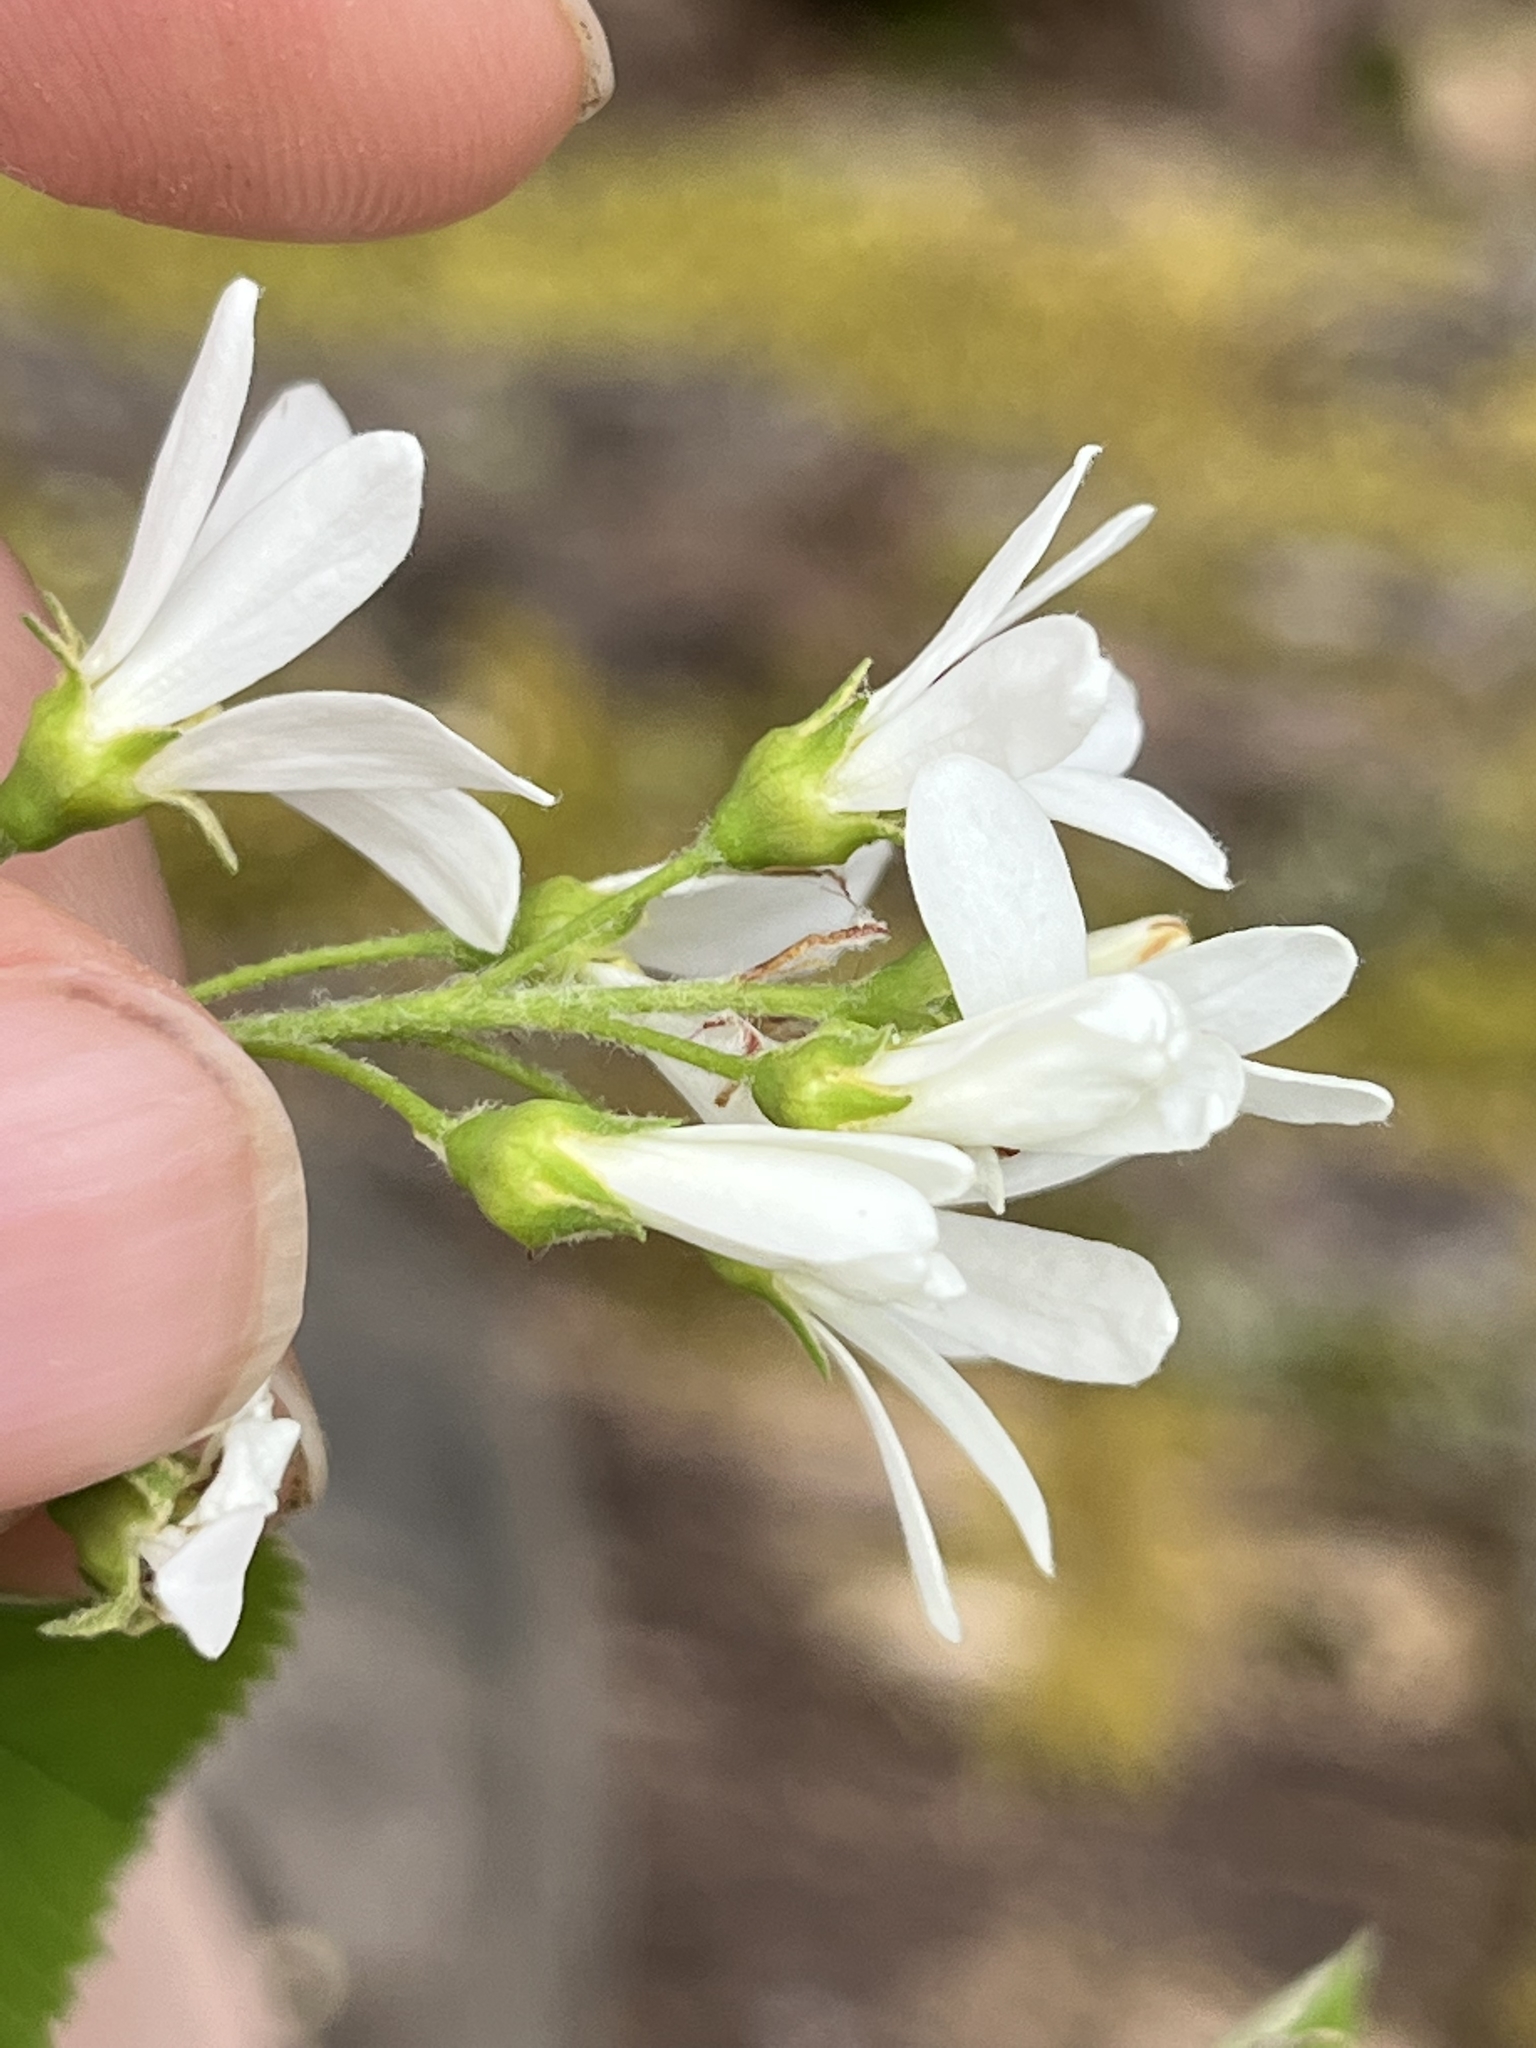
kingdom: Plantae
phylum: Tracheophyta
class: Magnoliopsida
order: Rosales
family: Rosaceae
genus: Amelanchier
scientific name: Amelanchier sanguinea
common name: Huron serviceberry
